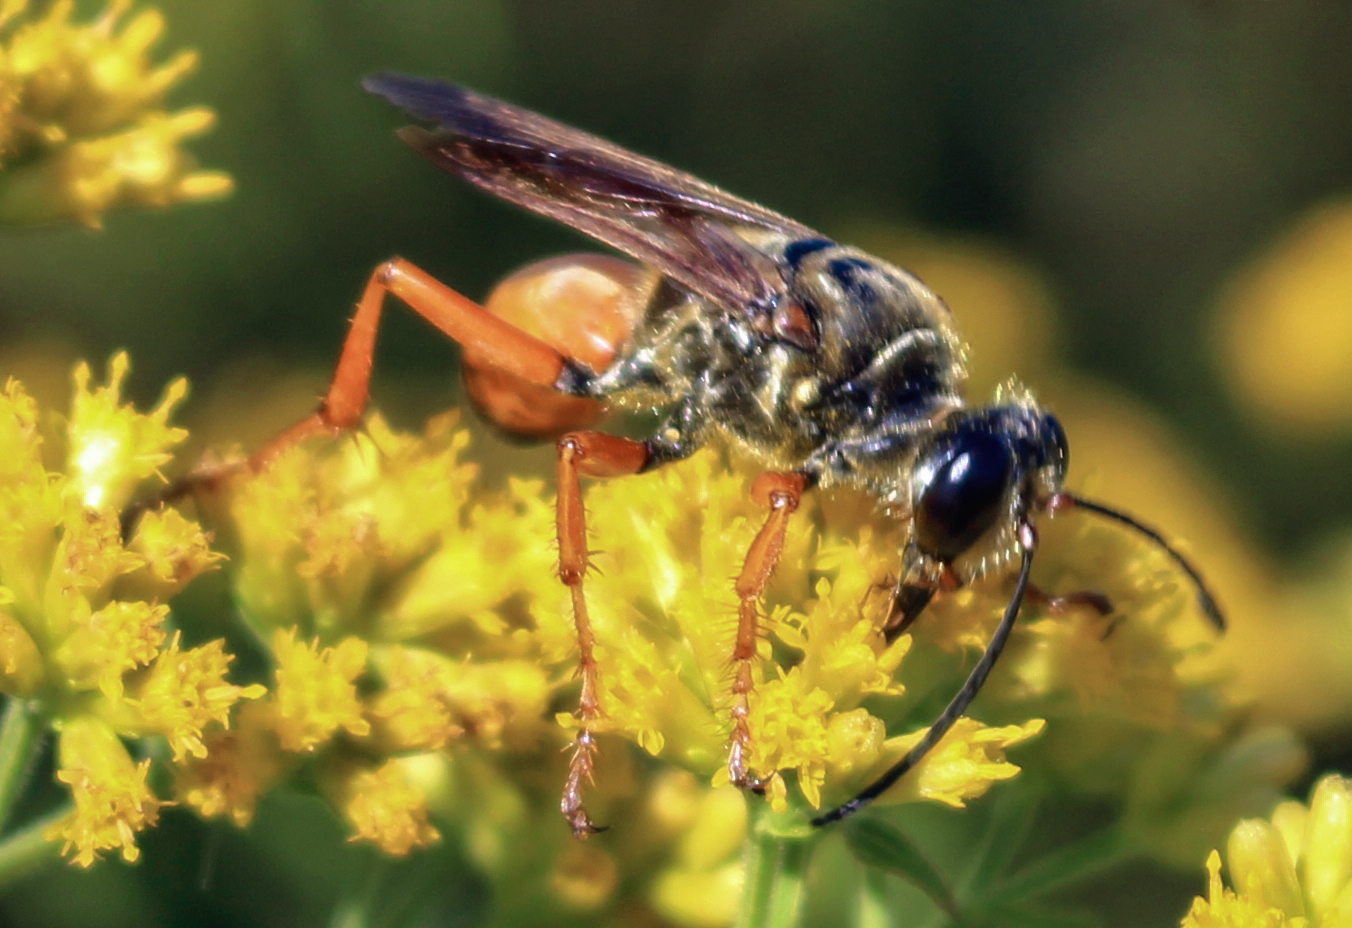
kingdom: Animalia
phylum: Arthropoda
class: Insecta
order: Hymenoptera
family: Sphecidae
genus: Sphex
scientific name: Sphex ichneumoneus
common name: Great golden digger wasp
